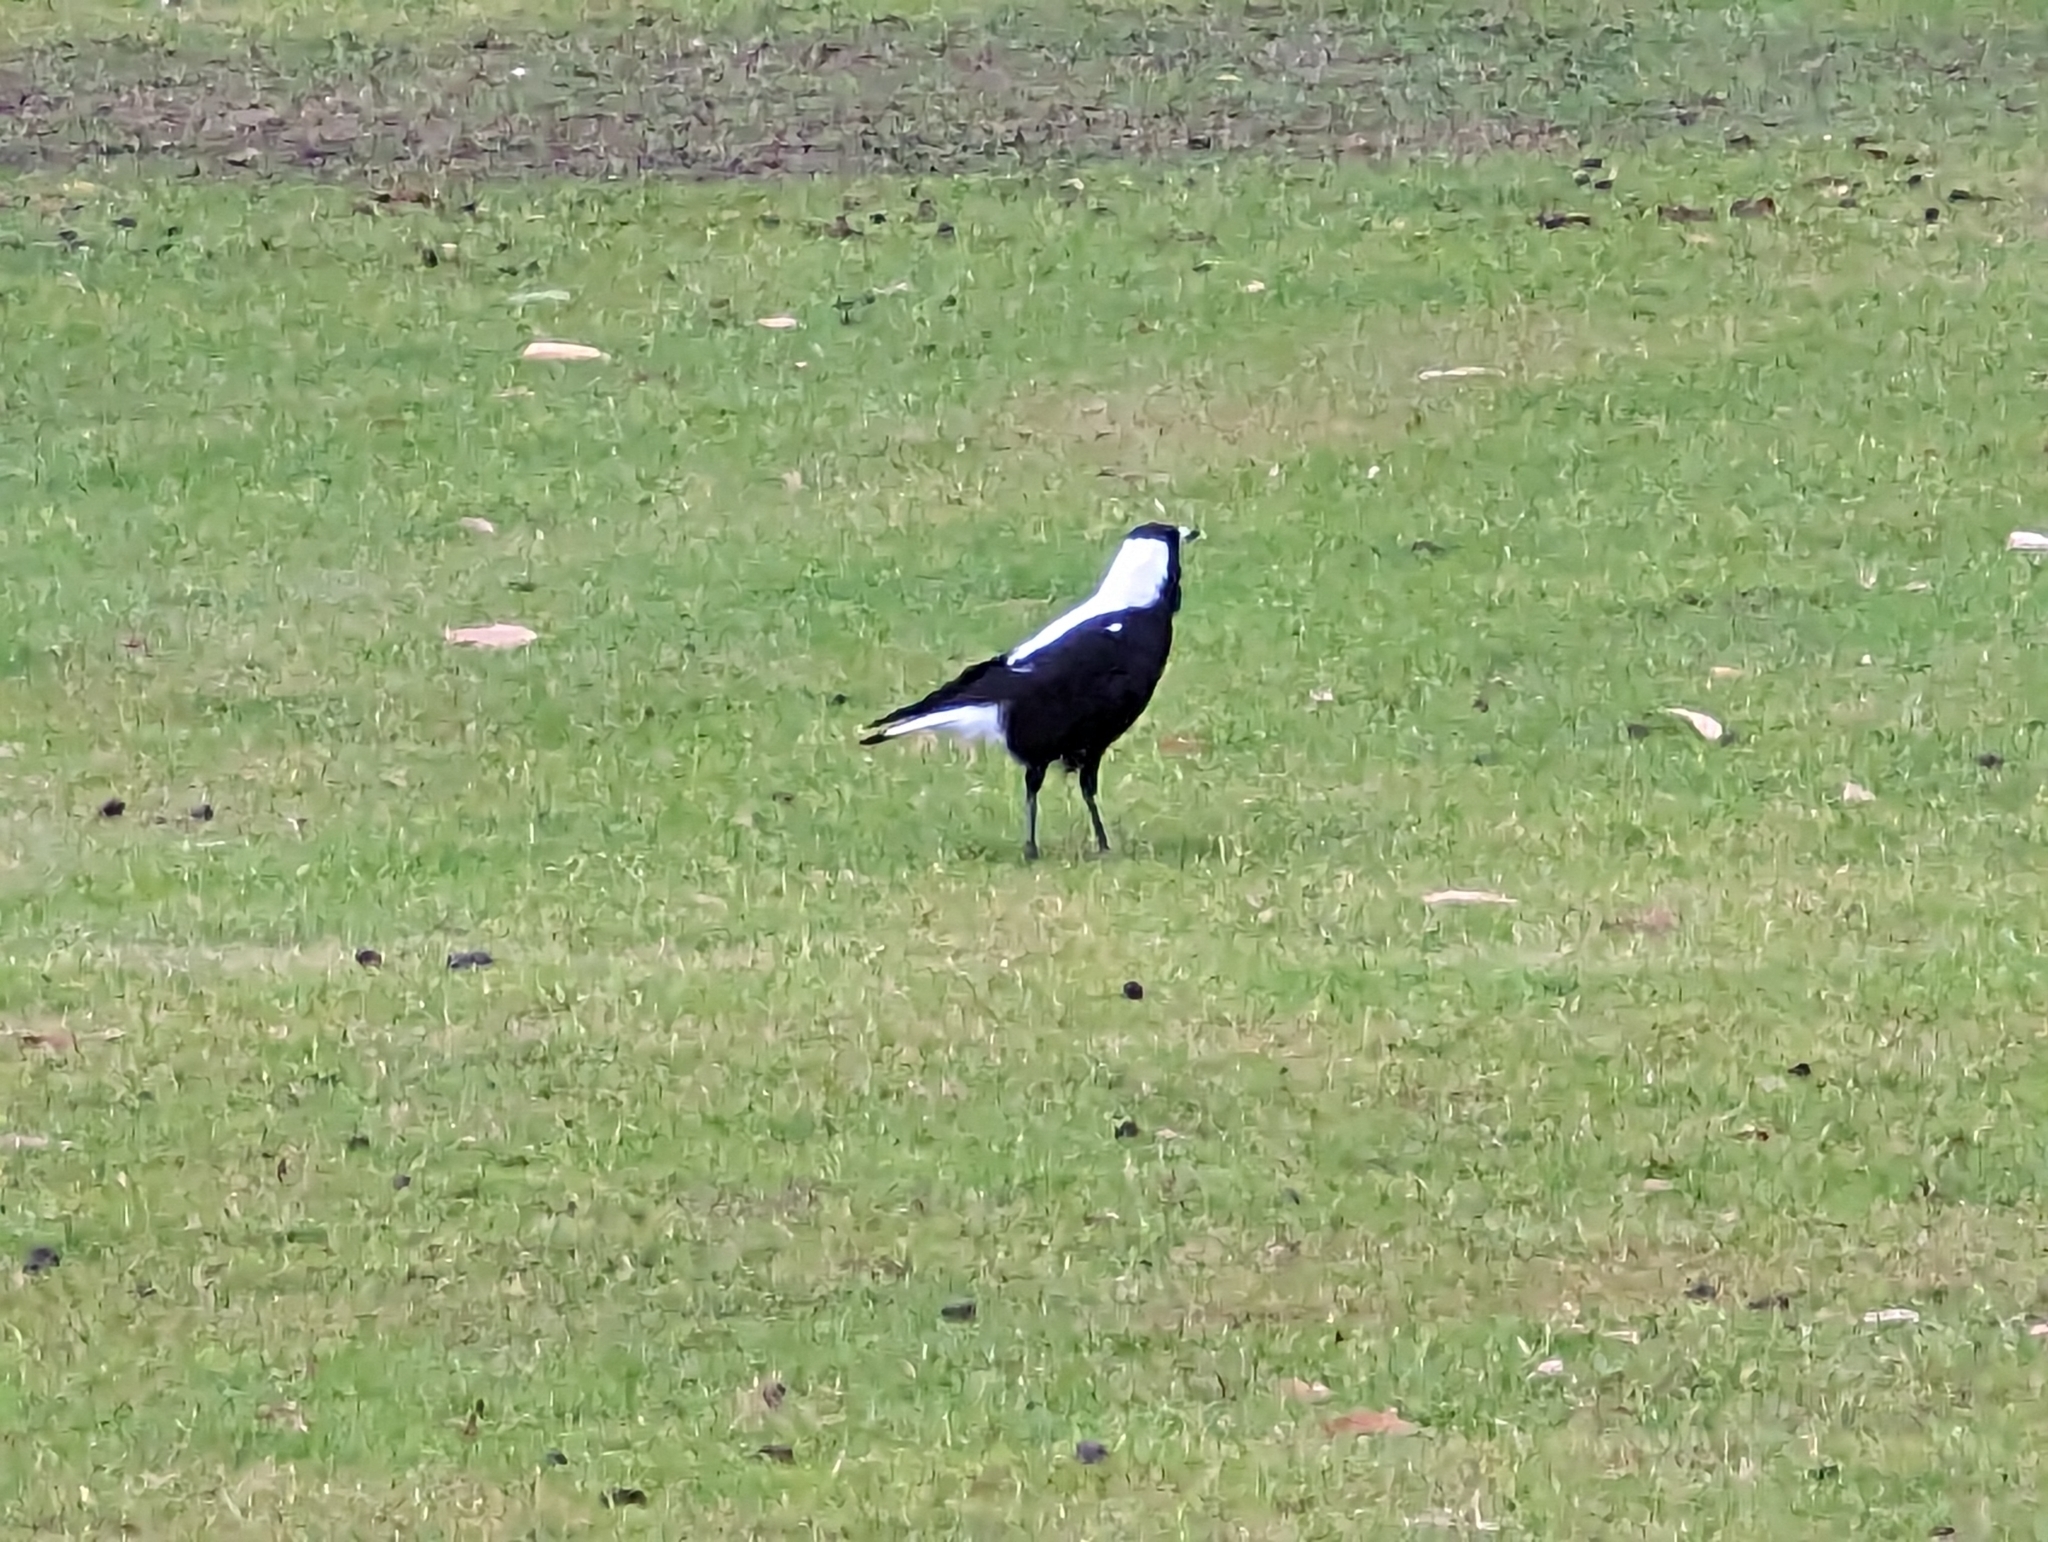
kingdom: Animalia
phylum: Chordata
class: Aves
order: Passeriformes
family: Cracticidae
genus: Gymnorhina
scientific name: Gymnorhina tibicen
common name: Australian magpie
